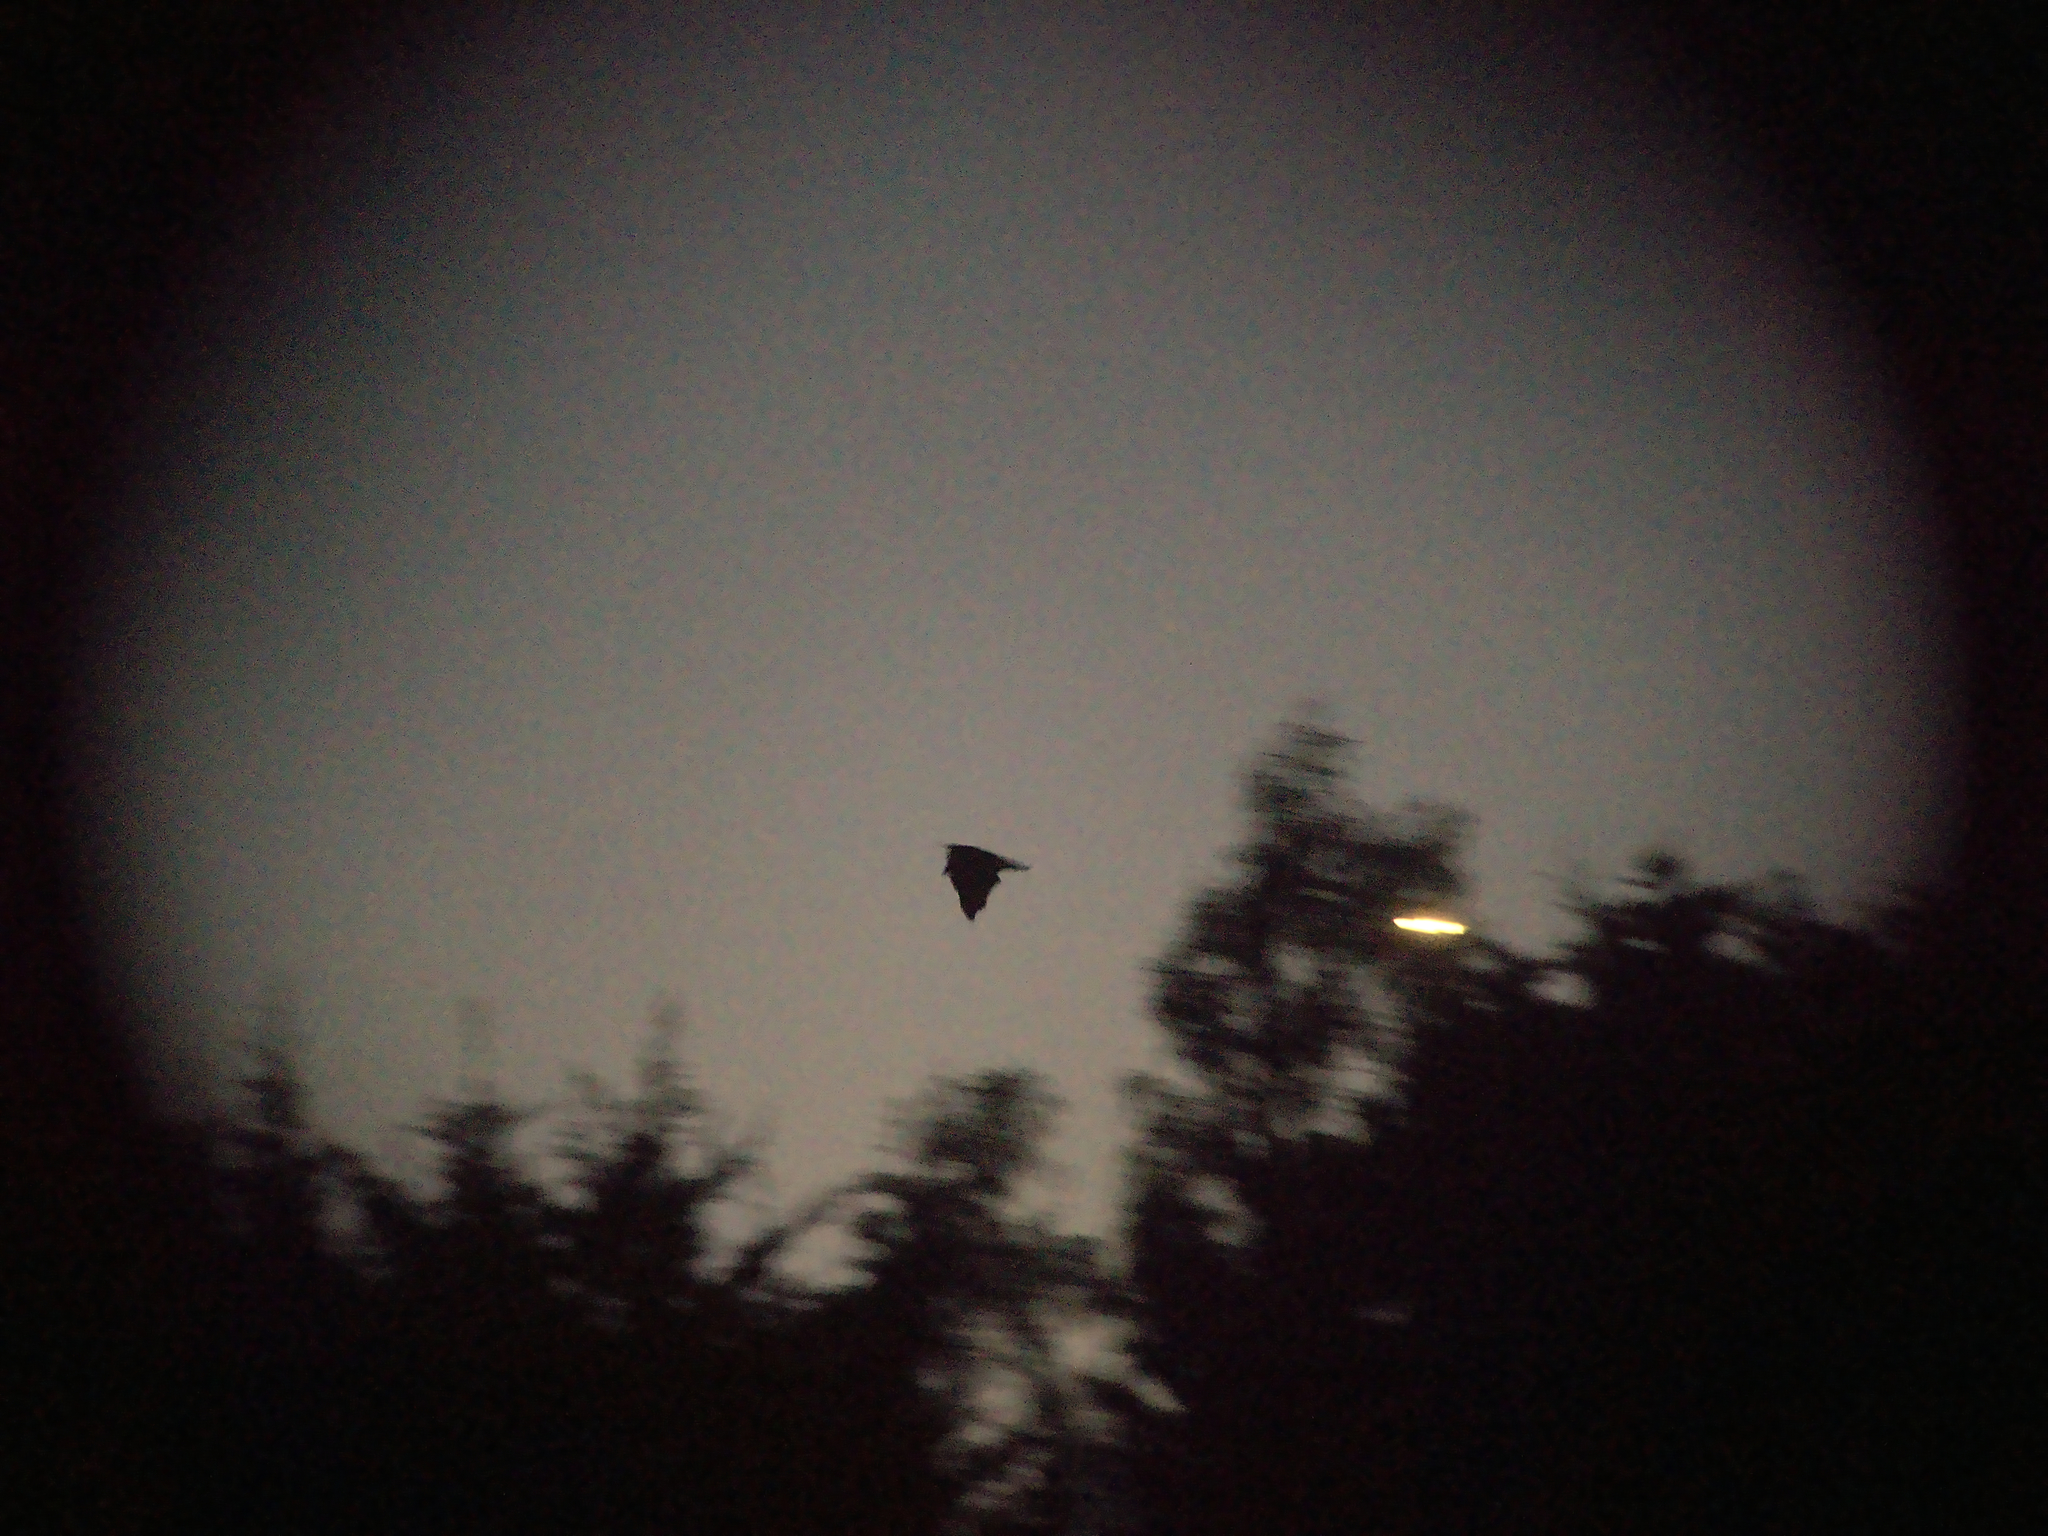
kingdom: Animalia
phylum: Chordata
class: Mammalia
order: Chiroptera
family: Pteropodidae
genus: Pteropus
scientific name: Pteropus poliocephalus
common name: Gray-headed flying fox
